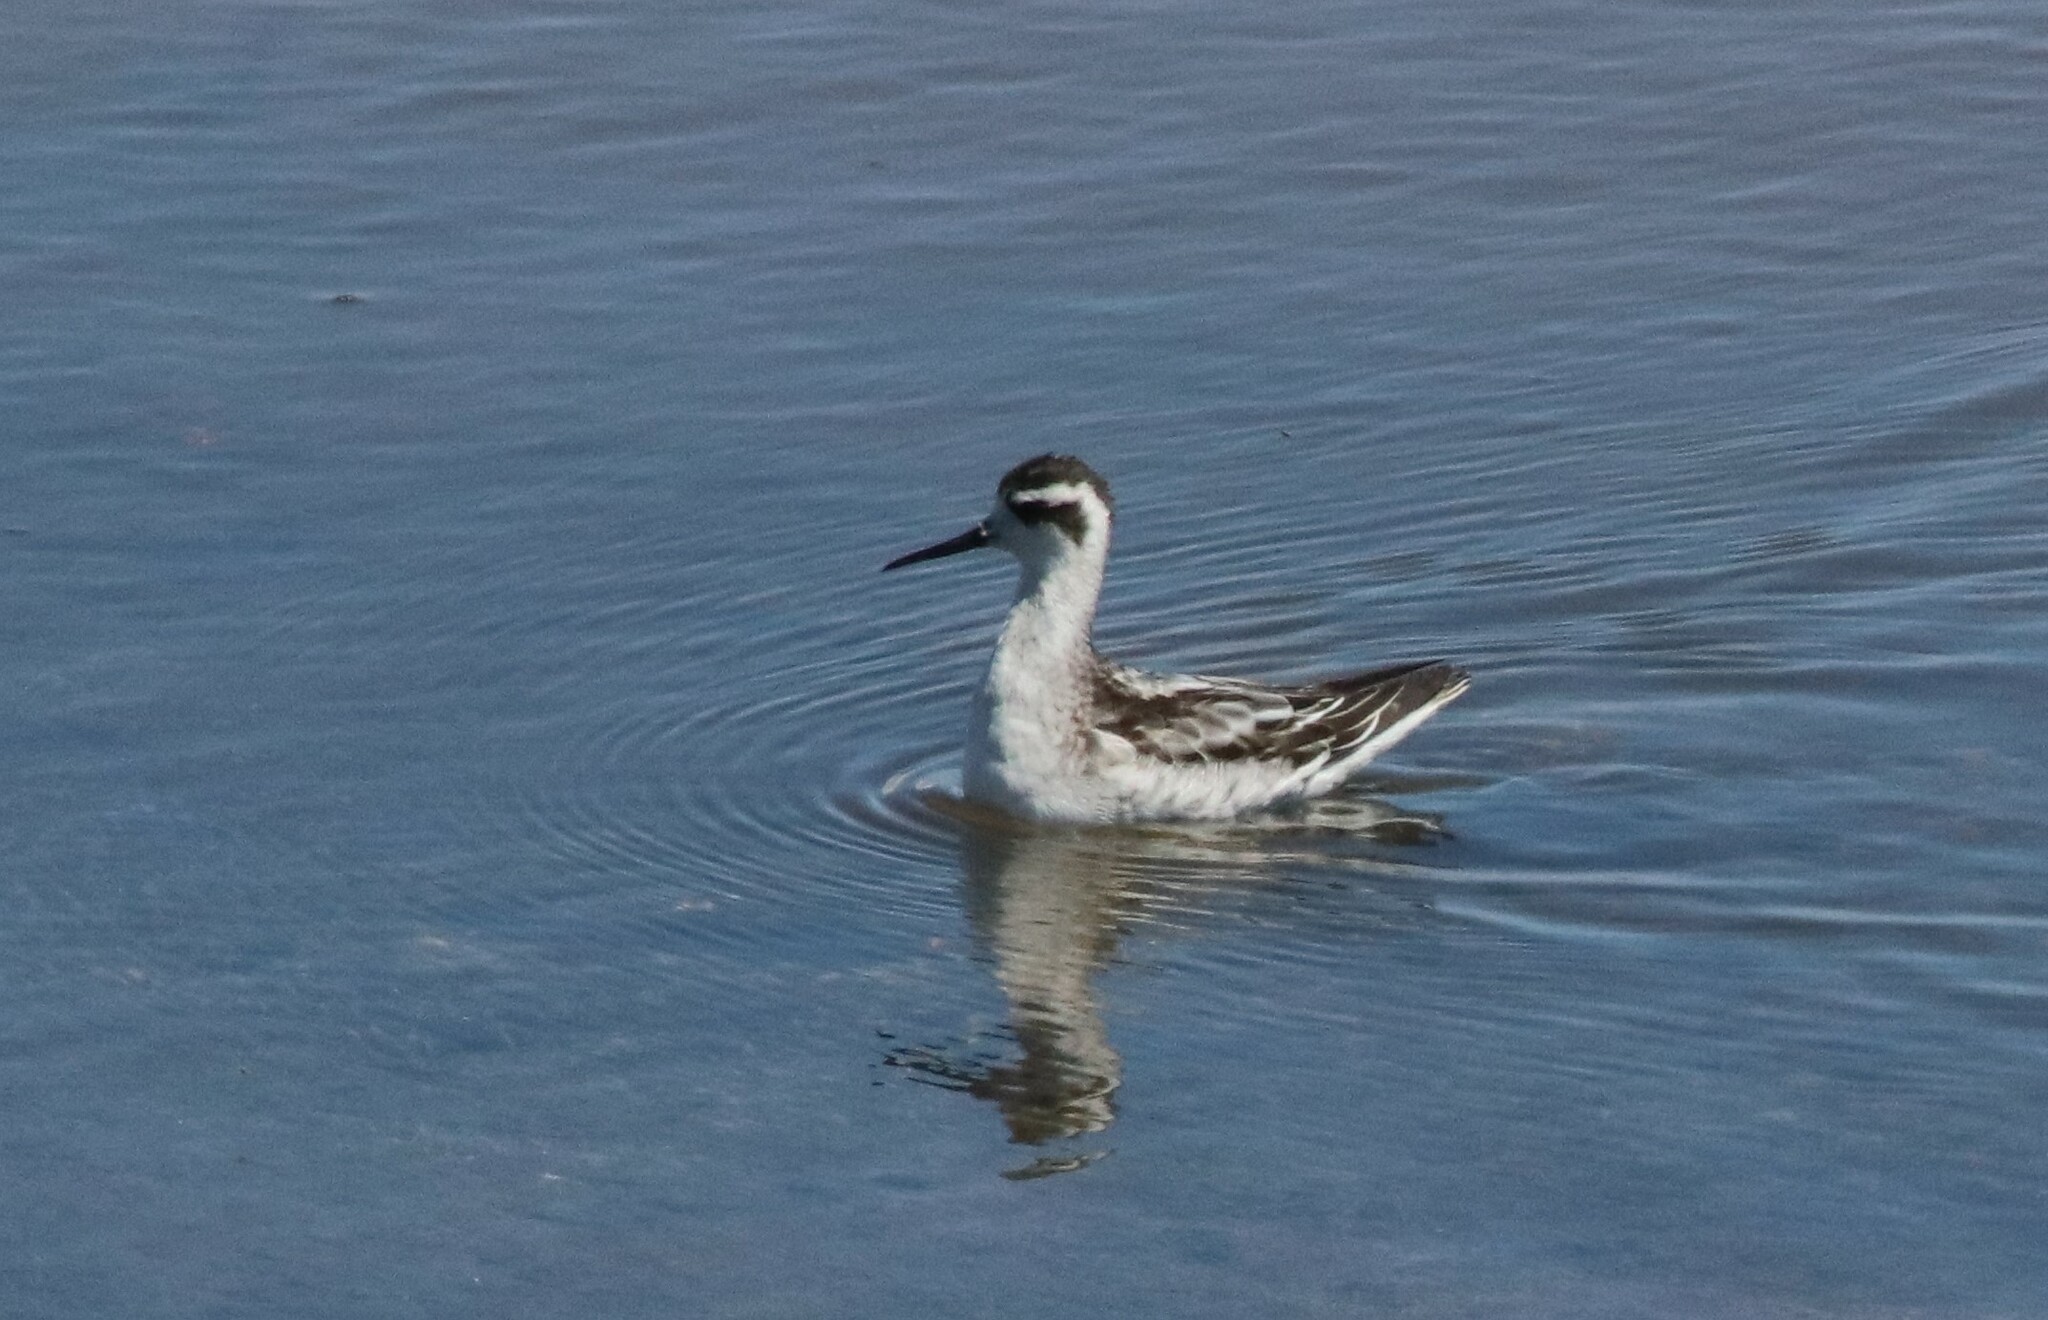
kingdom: Animalia
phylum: Chordata
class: Aves
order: Charadriiformes
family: Scolopacidae
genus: Phalaropus
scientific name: Phalaropus lobatus
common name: Red-necked phalarope
